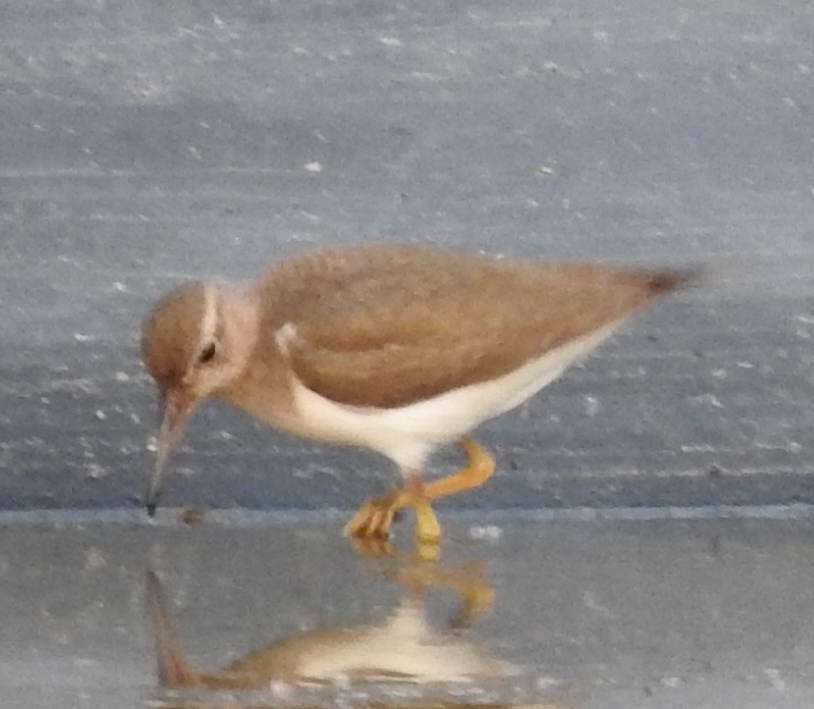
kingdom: Animalia
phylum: Chordata
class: Aves
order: Charadriiformes
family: Scolopacidae
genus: Actitis
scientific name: Actitis macularius
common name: Spotted sandpiper
